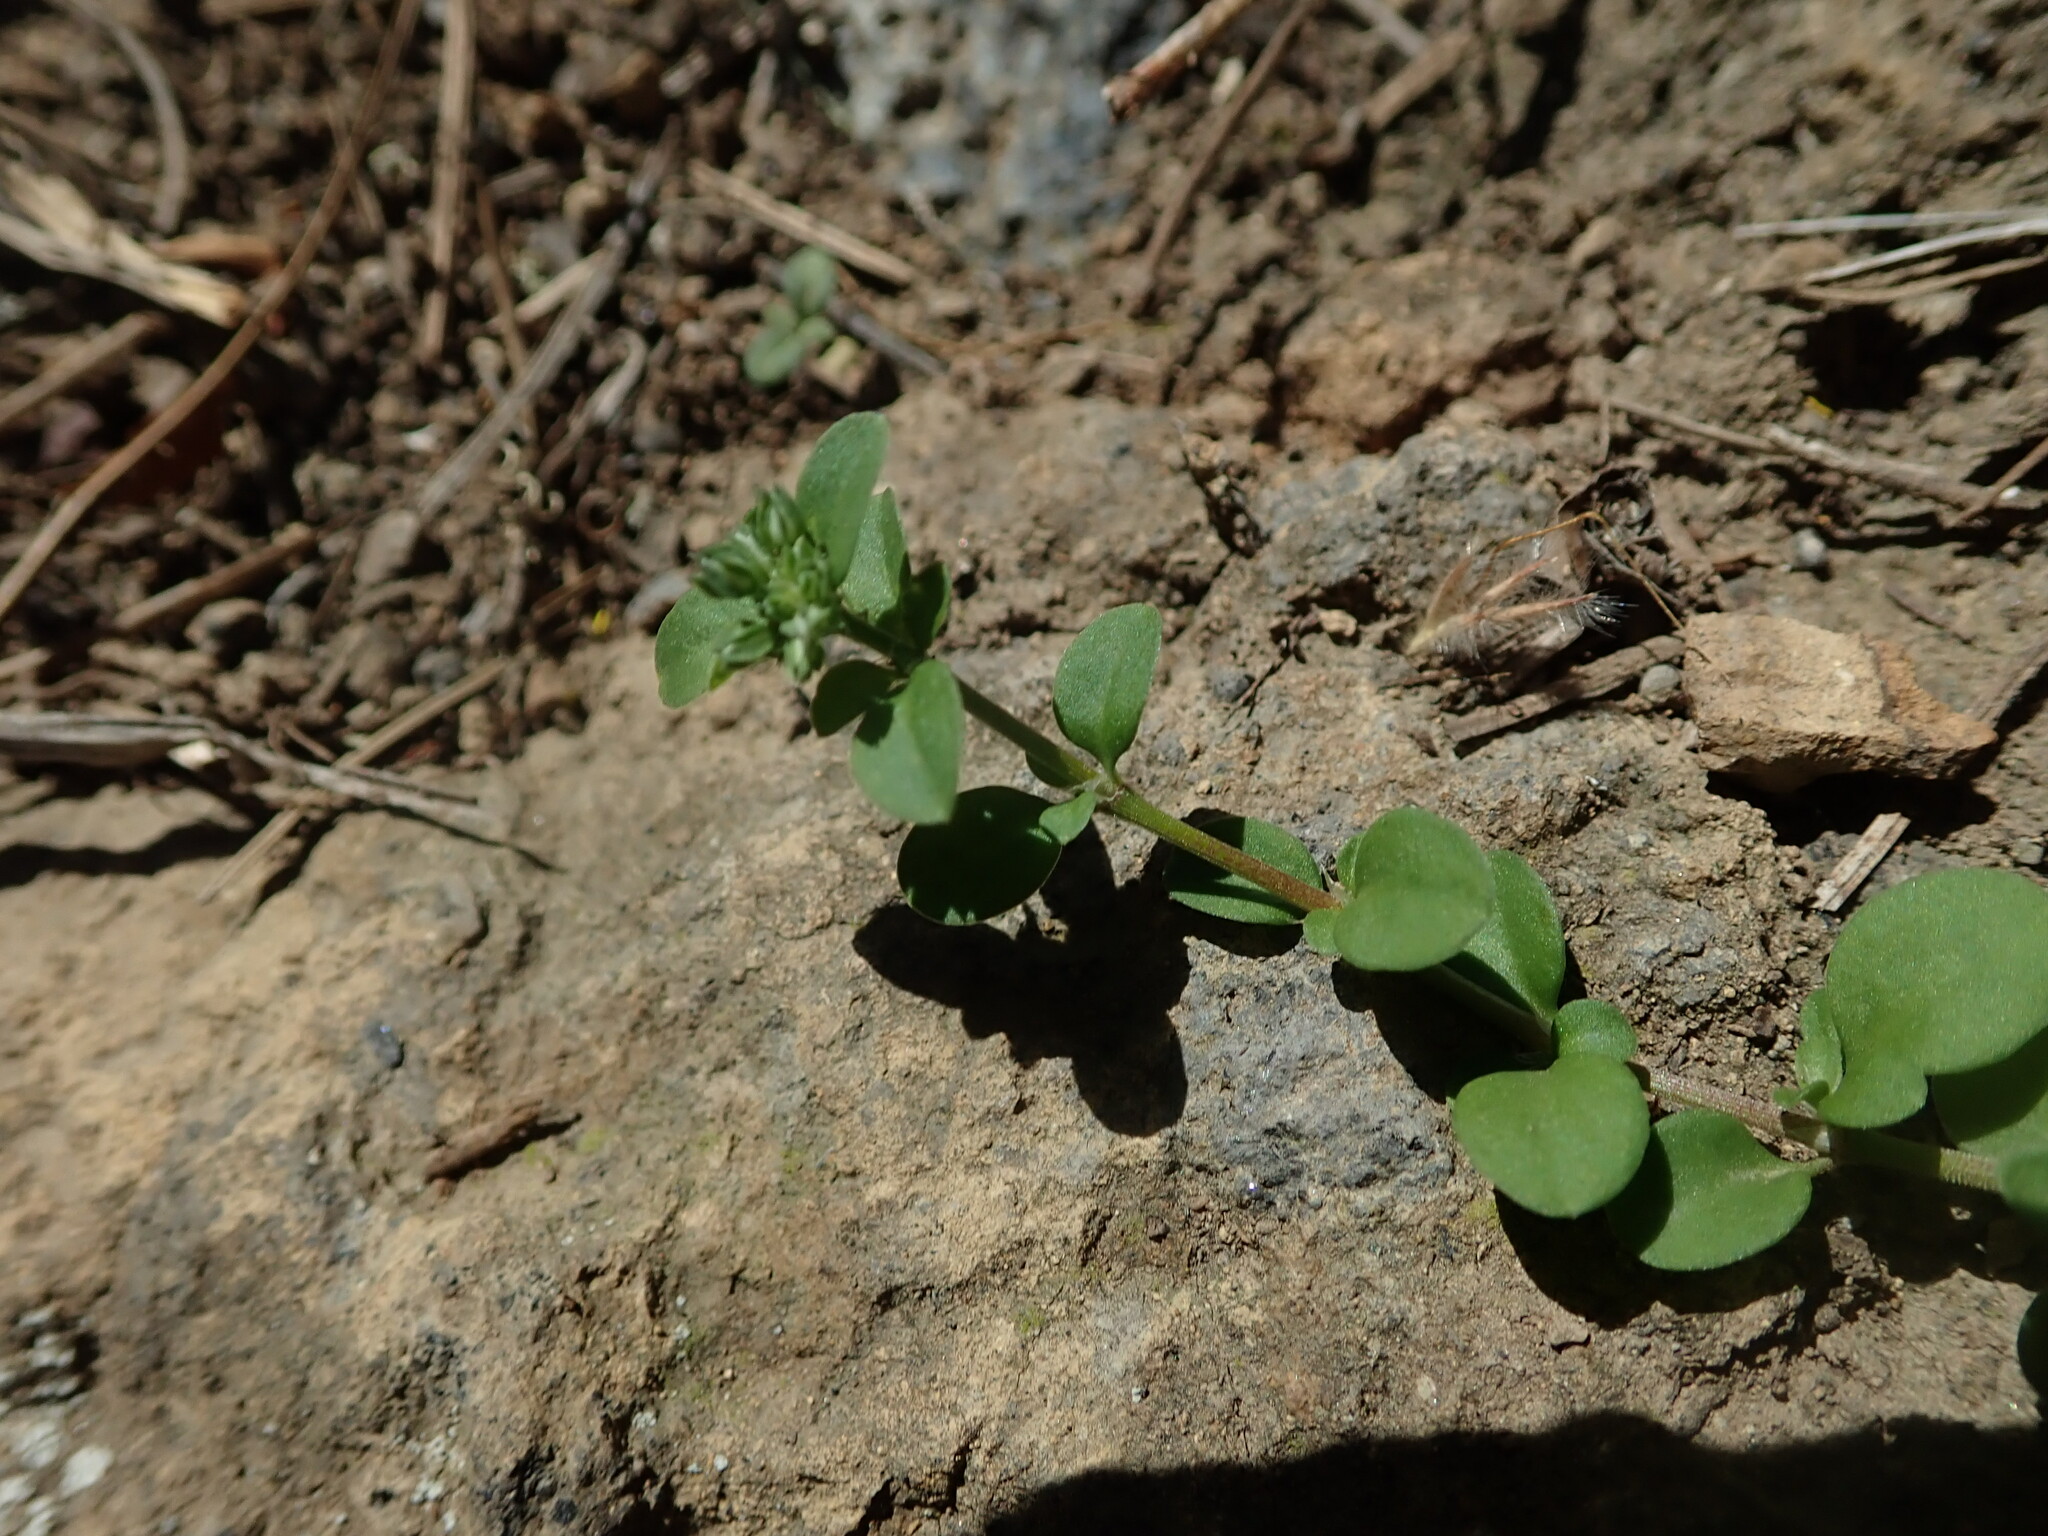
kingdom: Plantae
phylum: Tracheophyta
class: Magnoliopsida
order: Caryophyllales
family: Caryophyllaceae
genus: Polycarpon
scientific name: Polycarpon tetraphyllum
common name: Four-leaved all-seed
